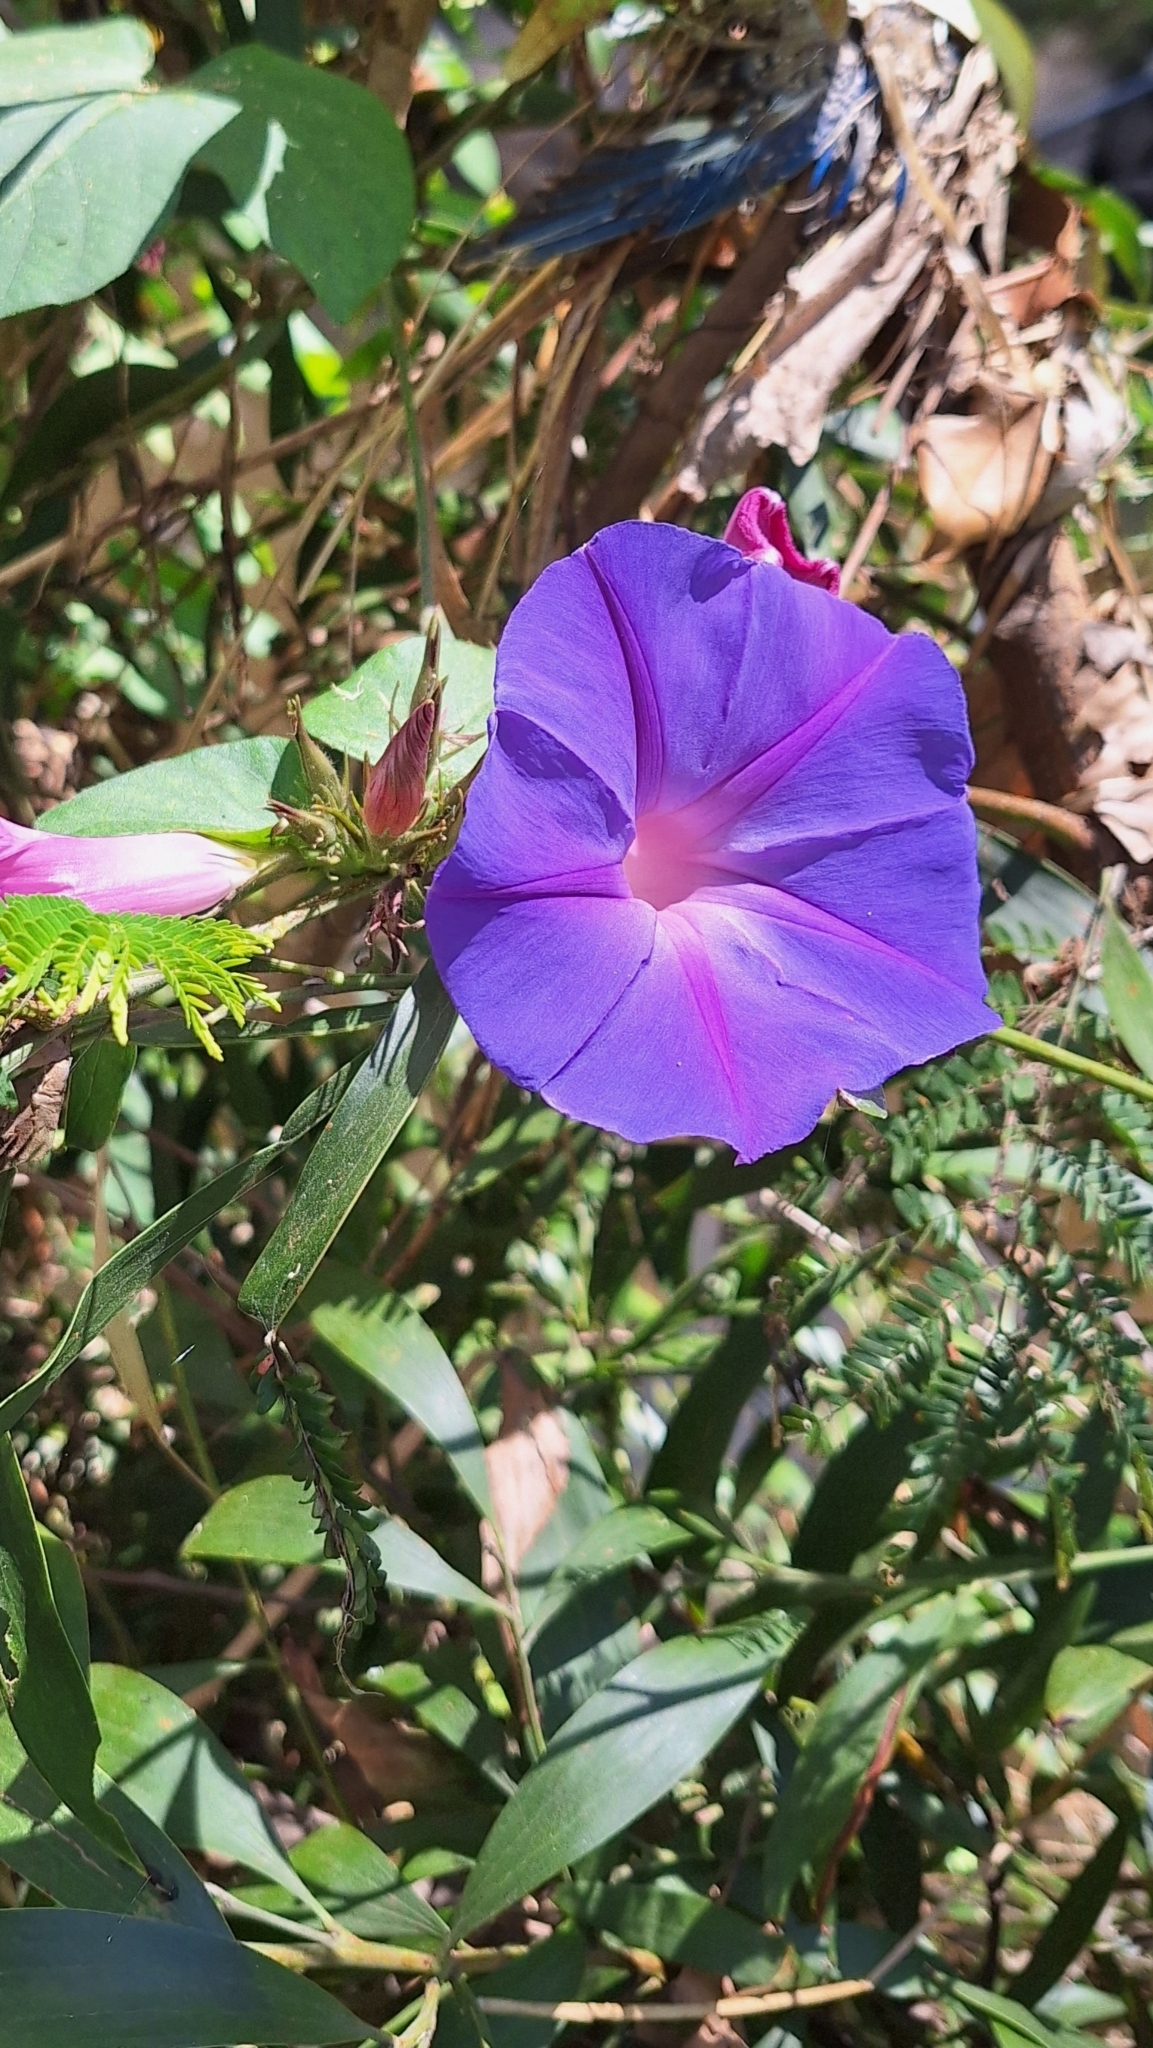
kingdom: Plantae
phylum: Tracheophyta
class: Magnoliopsida
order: Solanales
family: Convolvulaceae
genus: Ipomoea
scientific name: Ipomoea indica
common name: Blue dawnflower
